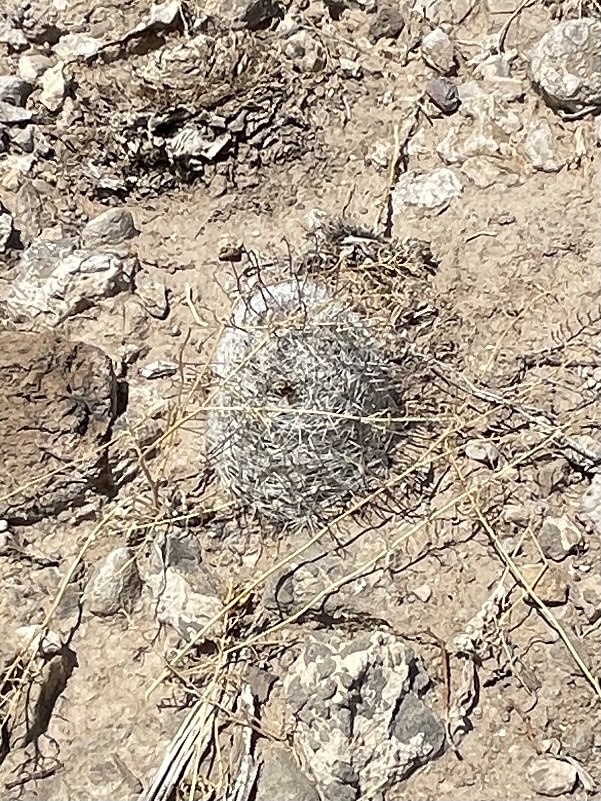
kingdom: Plantae
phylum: Tracheophyta
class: Magnoliopsida
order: Caryophyllales
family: Cactaceae
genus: Cochemiea
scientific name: Cochemiea grahamii
